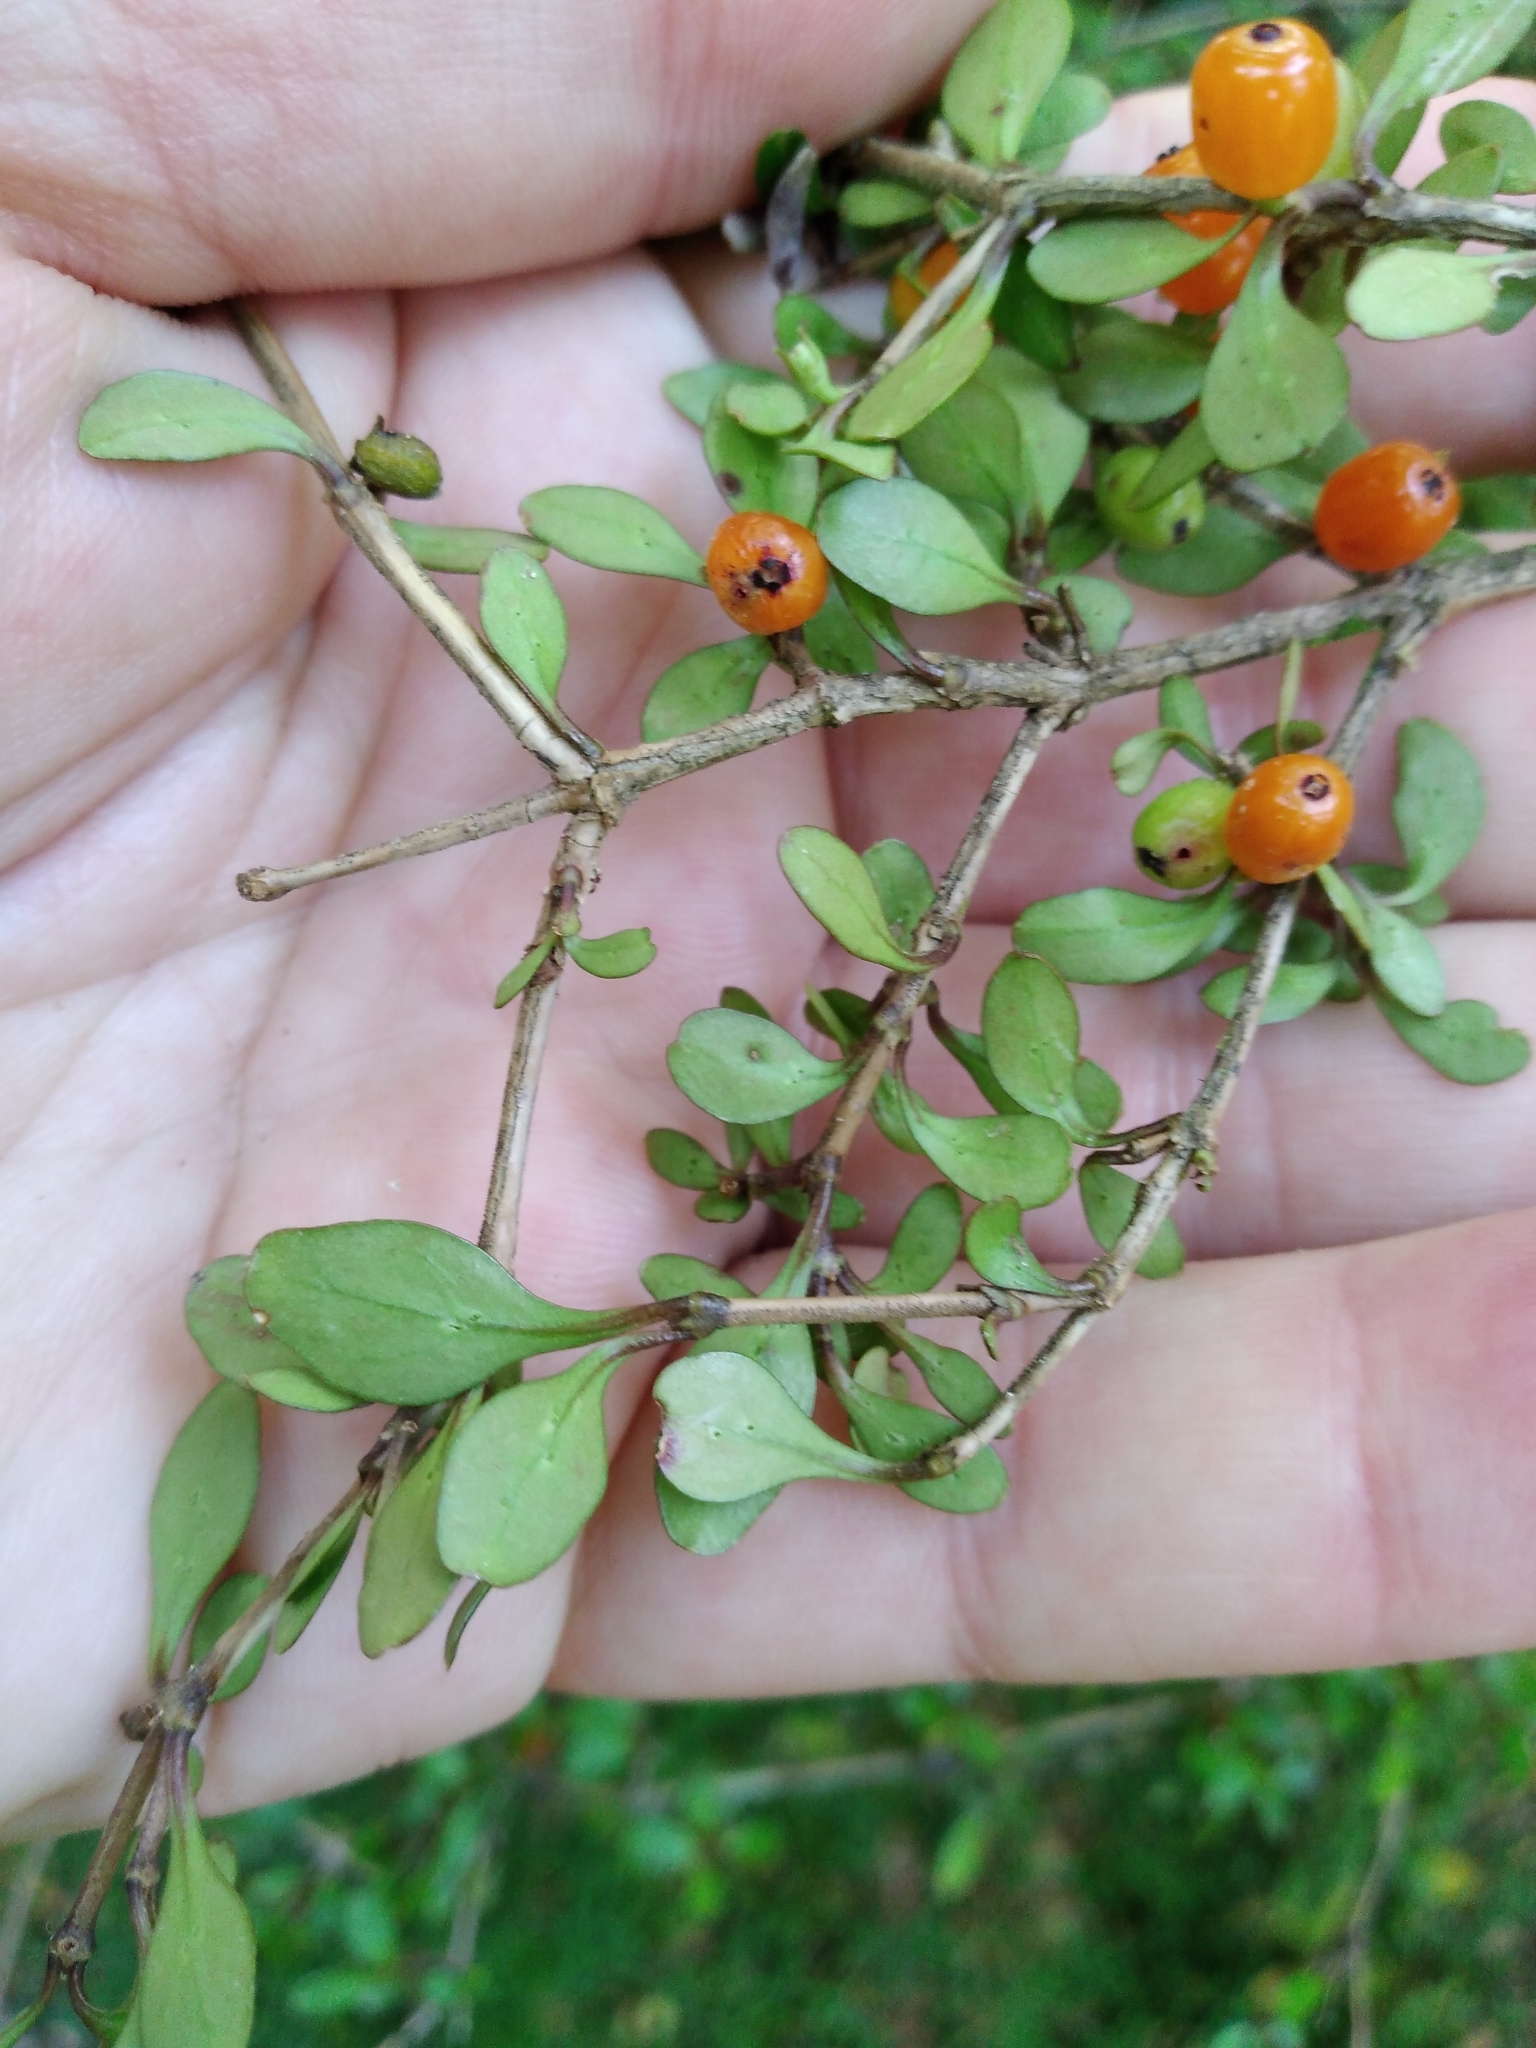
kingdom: Plantae
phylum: Tracheophyta
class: Magnoliopsida
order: Gentianales
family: Rubiaceae
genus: Coprosma
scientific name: Coprosma colensoi
